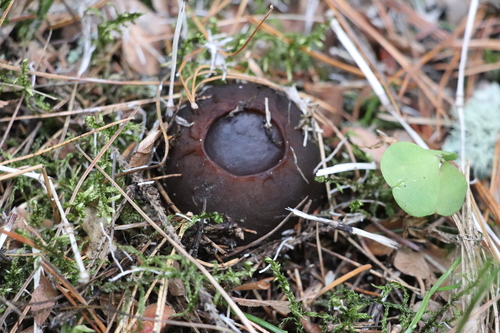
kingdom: Fungi
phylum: Ascomycota
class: Pezizomycetes
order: Pezizales
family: Sarcosomataceae
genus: Sarcosoma
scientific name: Sarcosoma globosum
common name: Charred-pancake cup
